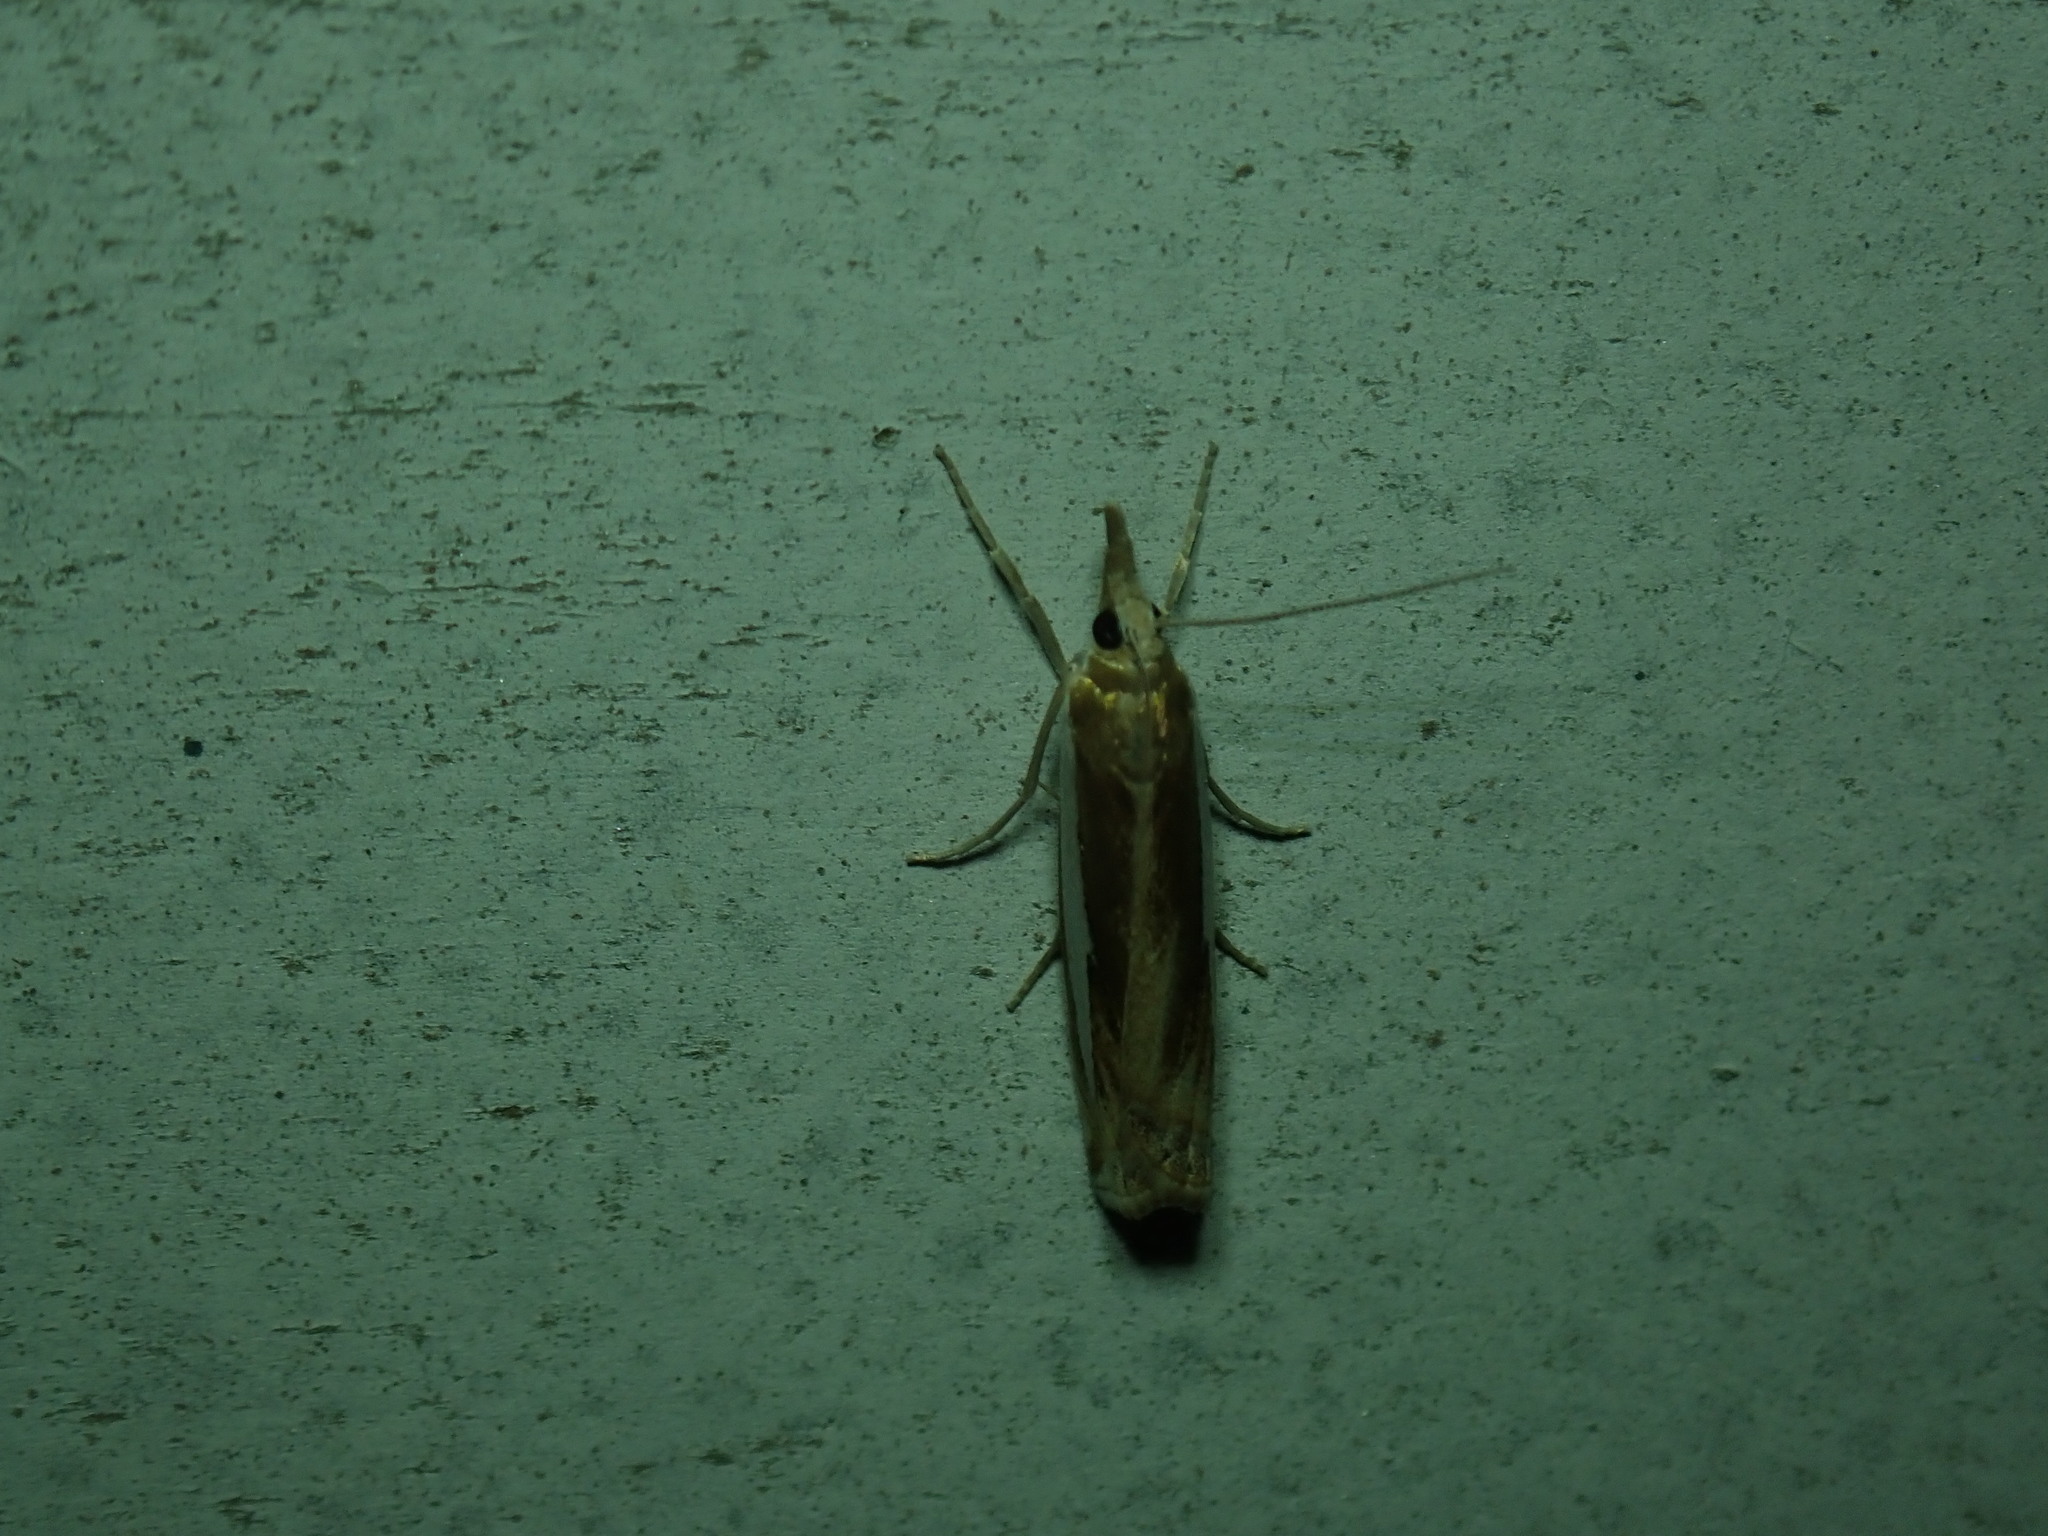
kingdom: Animalia
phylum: Arthropoda
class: Insecta
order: Lepidoptera
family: Crambidae
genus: Crambus
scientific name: Crambus
